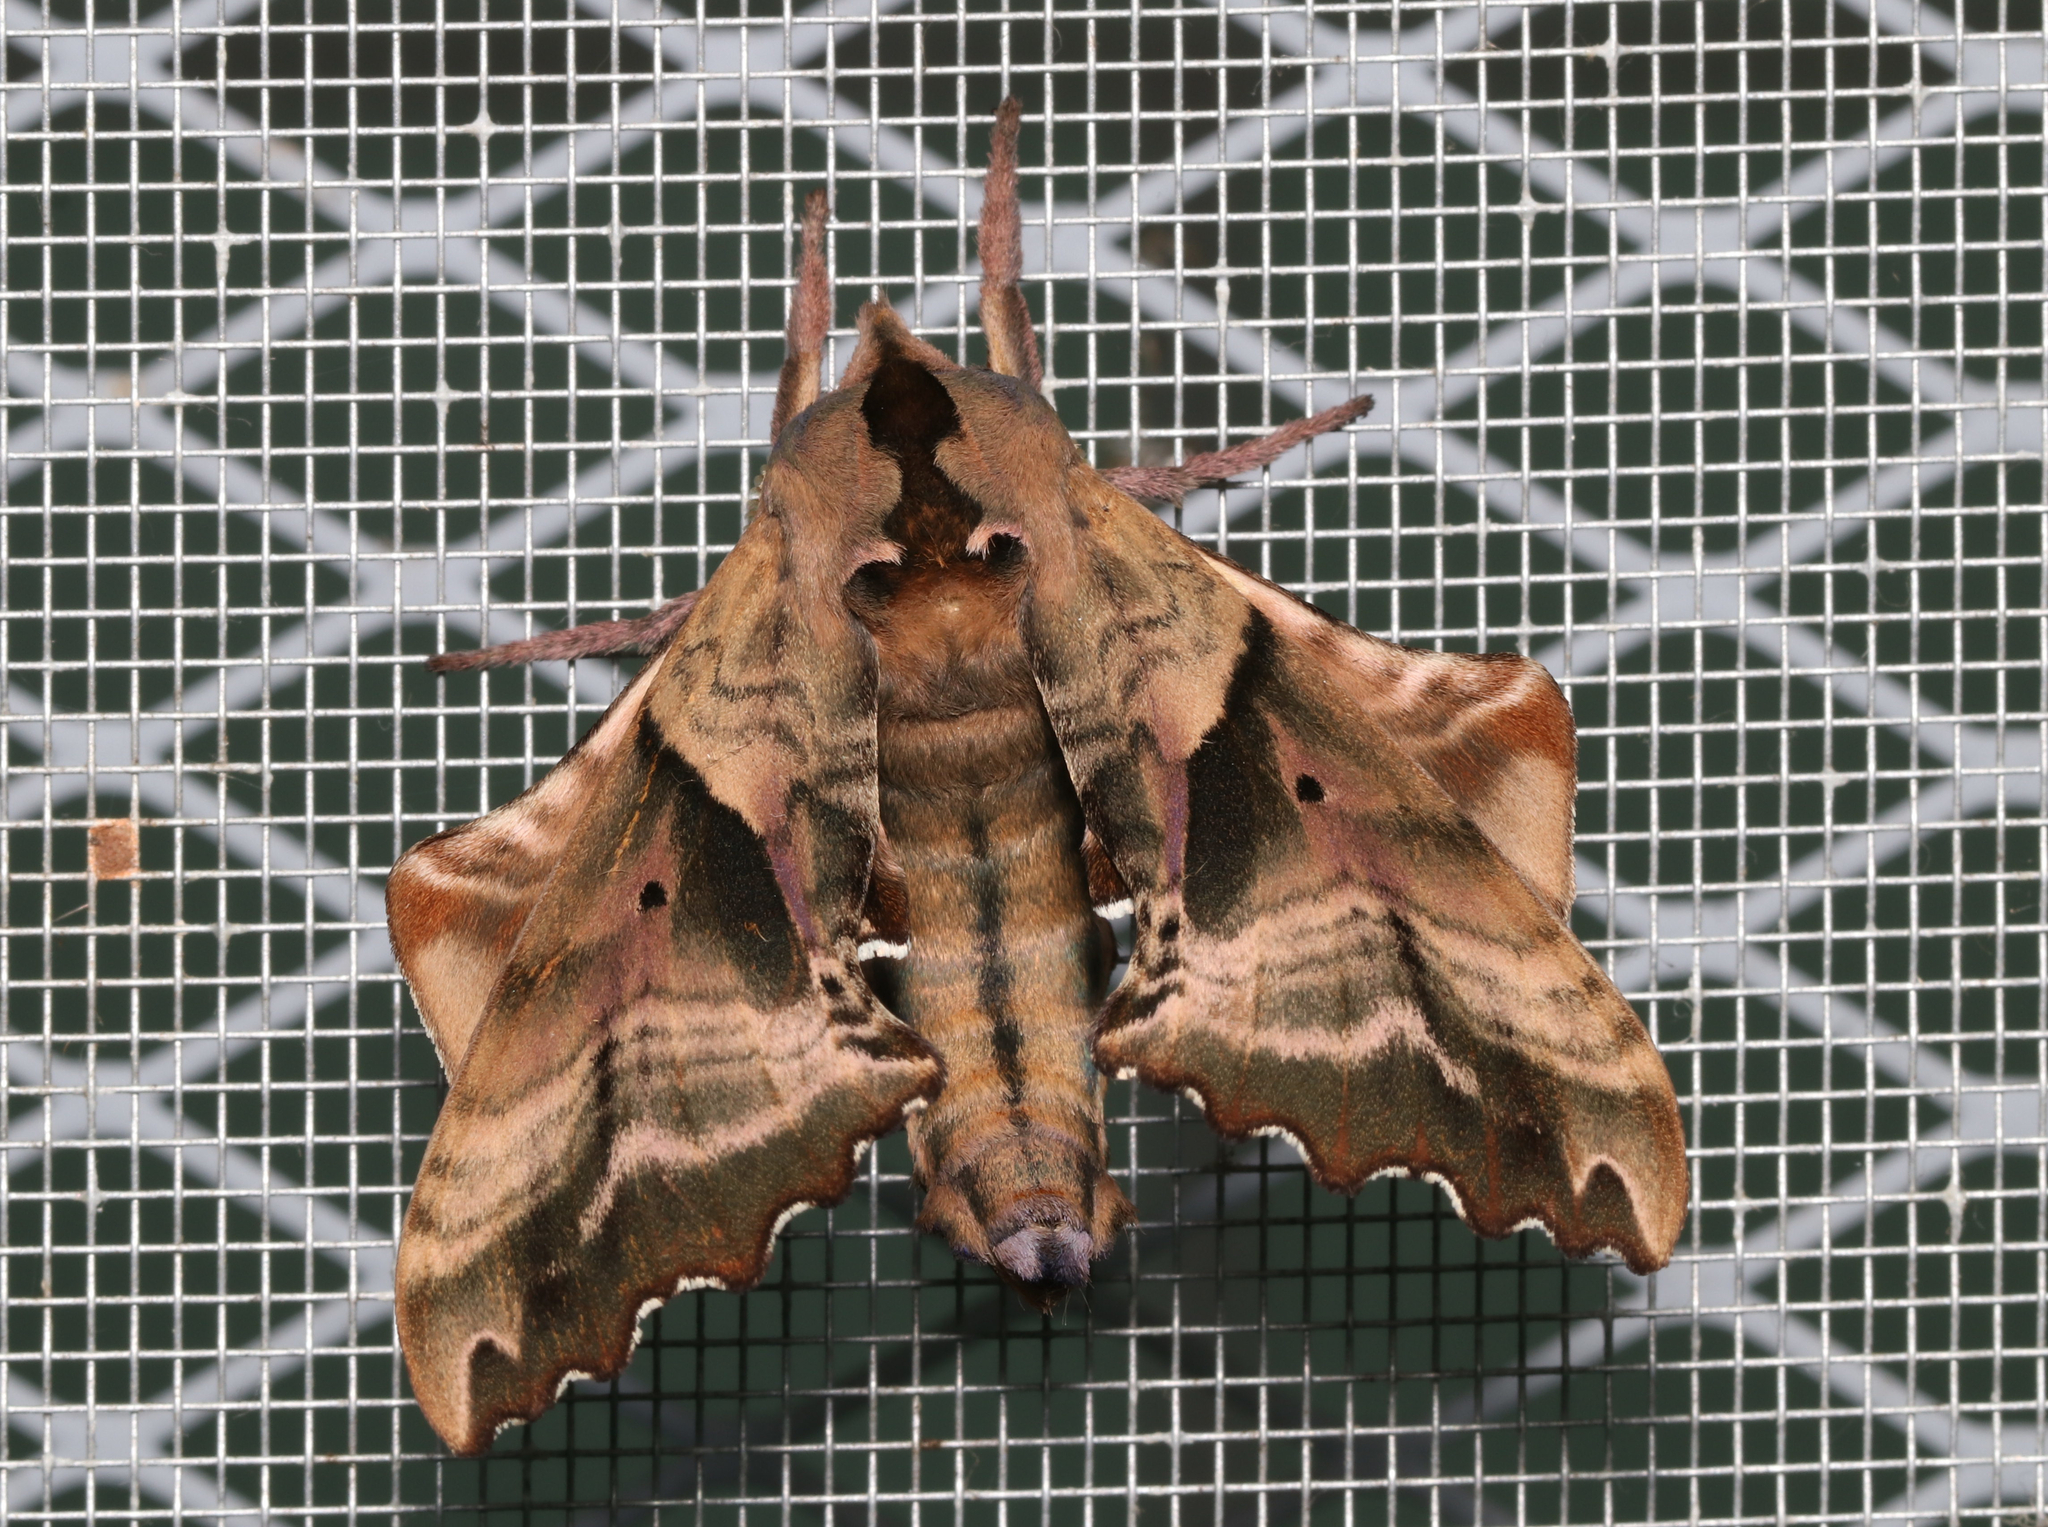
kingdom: Animalia
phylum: Arthropoda
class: Insecta
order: Lepidoptera
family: Sphingidae
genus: Paonias
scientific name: Paonias excaecata
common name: Blind-eyed sphinx
